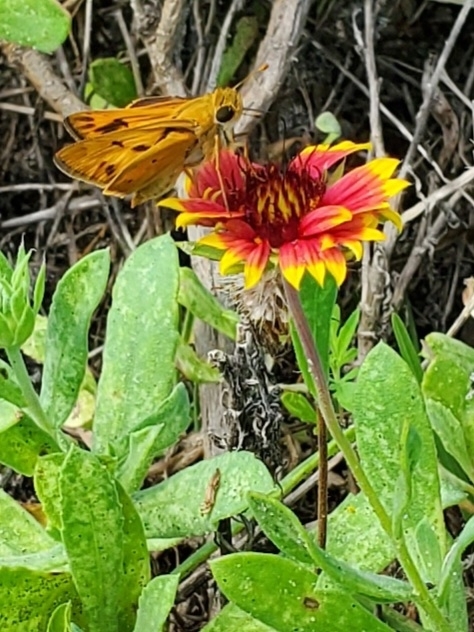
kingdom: Animalia
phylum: Arthropoda
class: Insecta
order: Lepidoptera
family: Hesperiidae
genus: Hylephila
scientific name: Hylephila phyleus
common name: Fiery skipper
